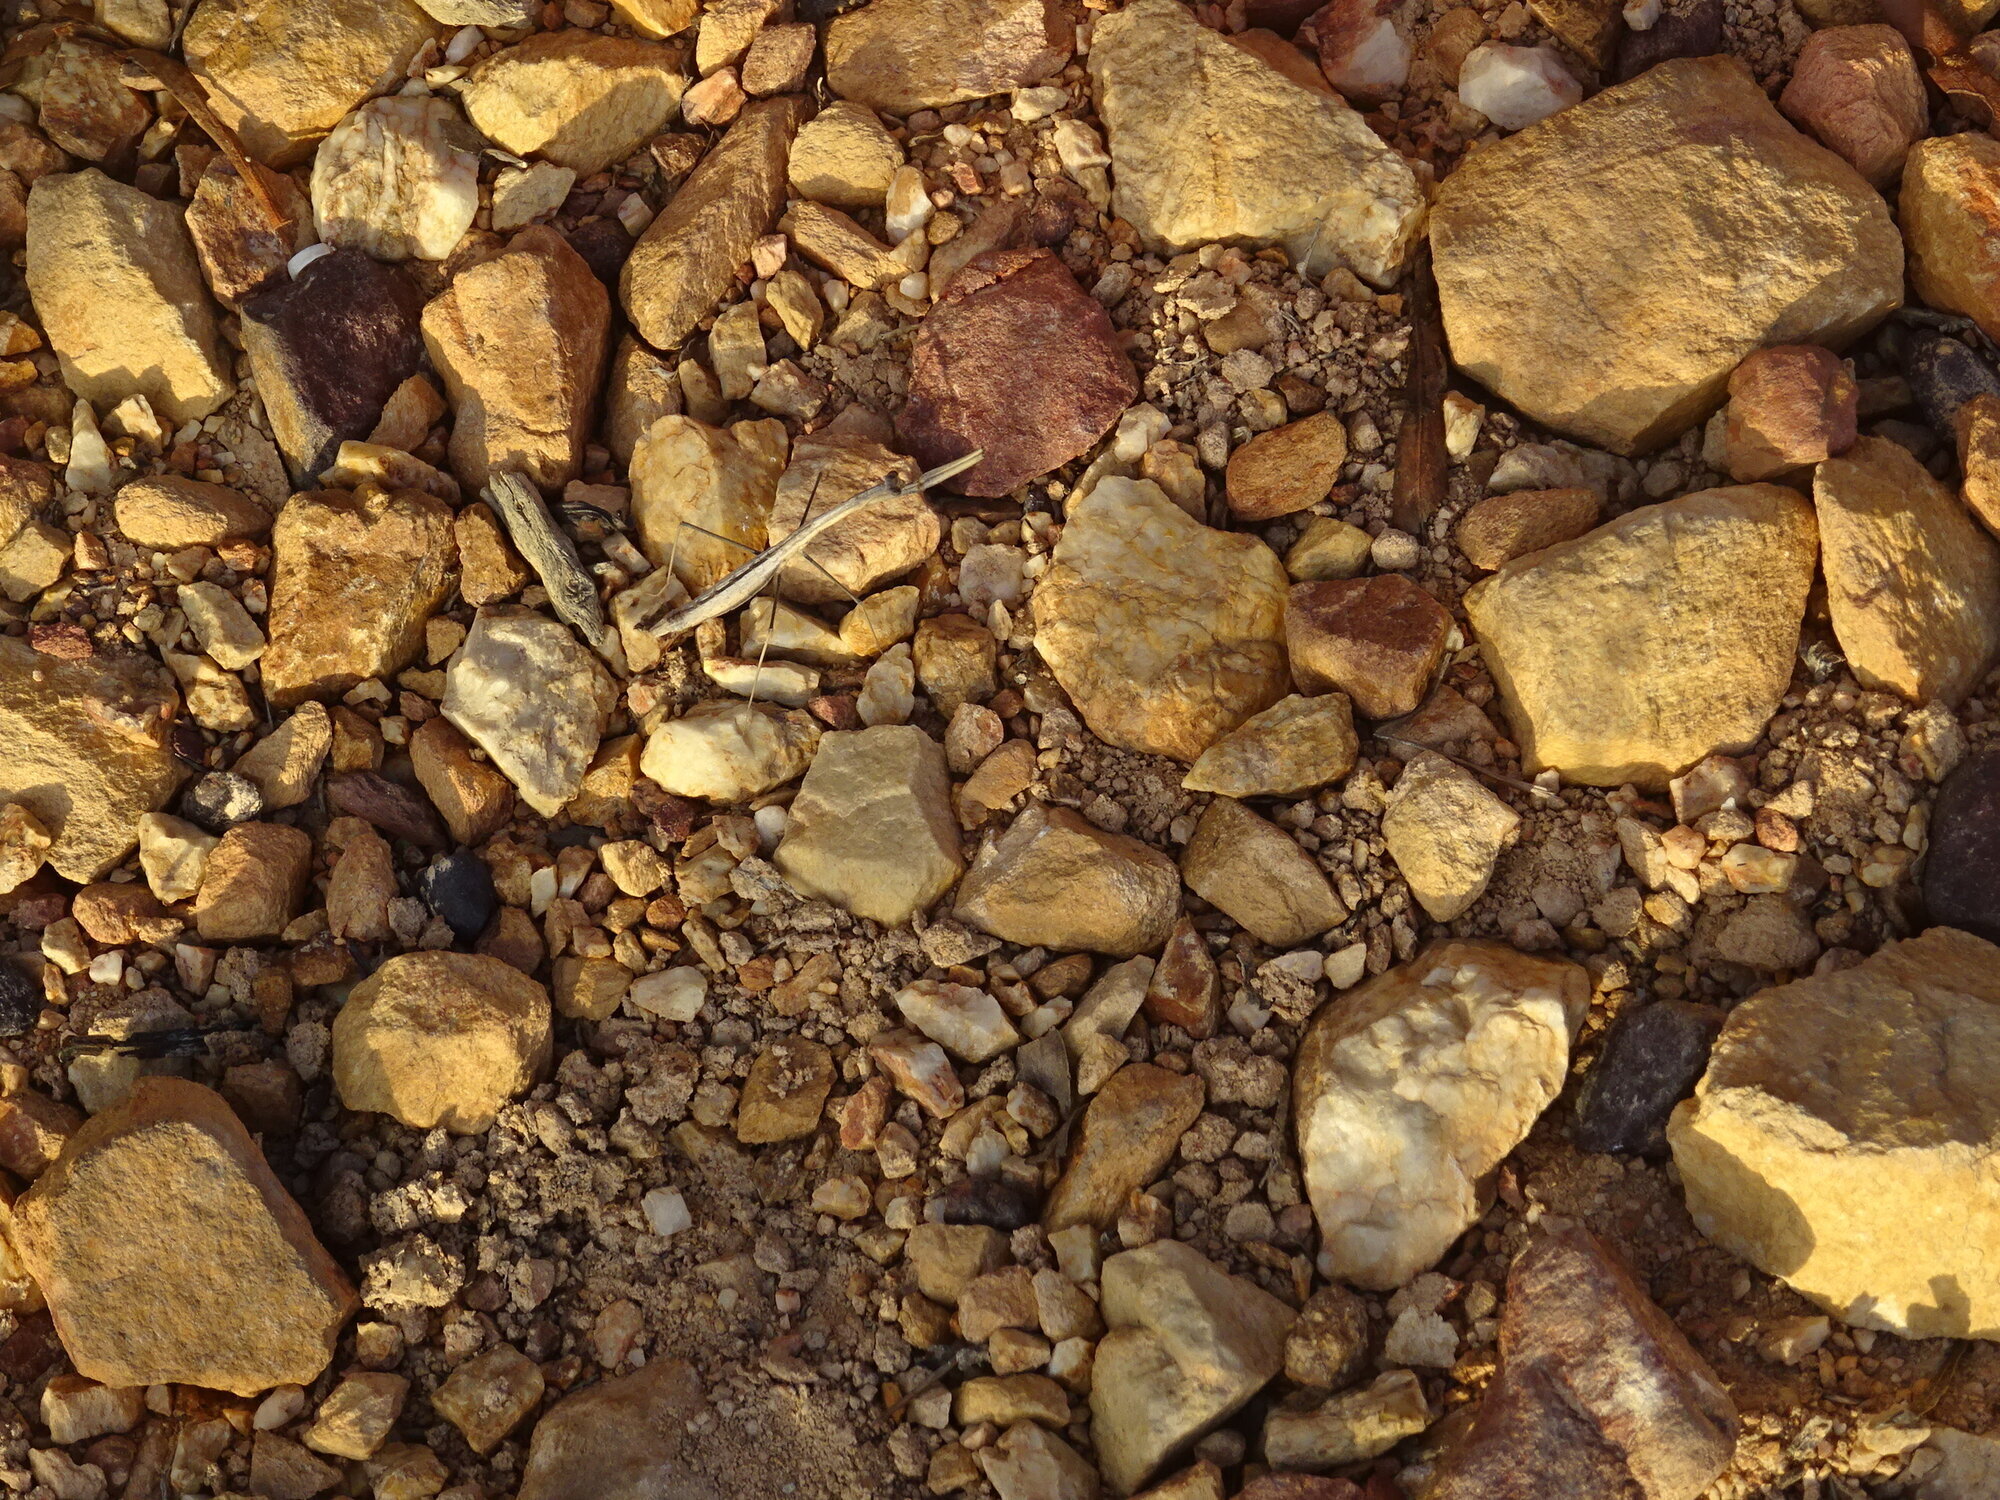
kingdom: Animalia
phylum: Arthropoda
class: Insecta
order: Mantodea
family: Hoplocoryphidae
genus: Hoplocorypha
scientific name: Hoplocorypha macra
